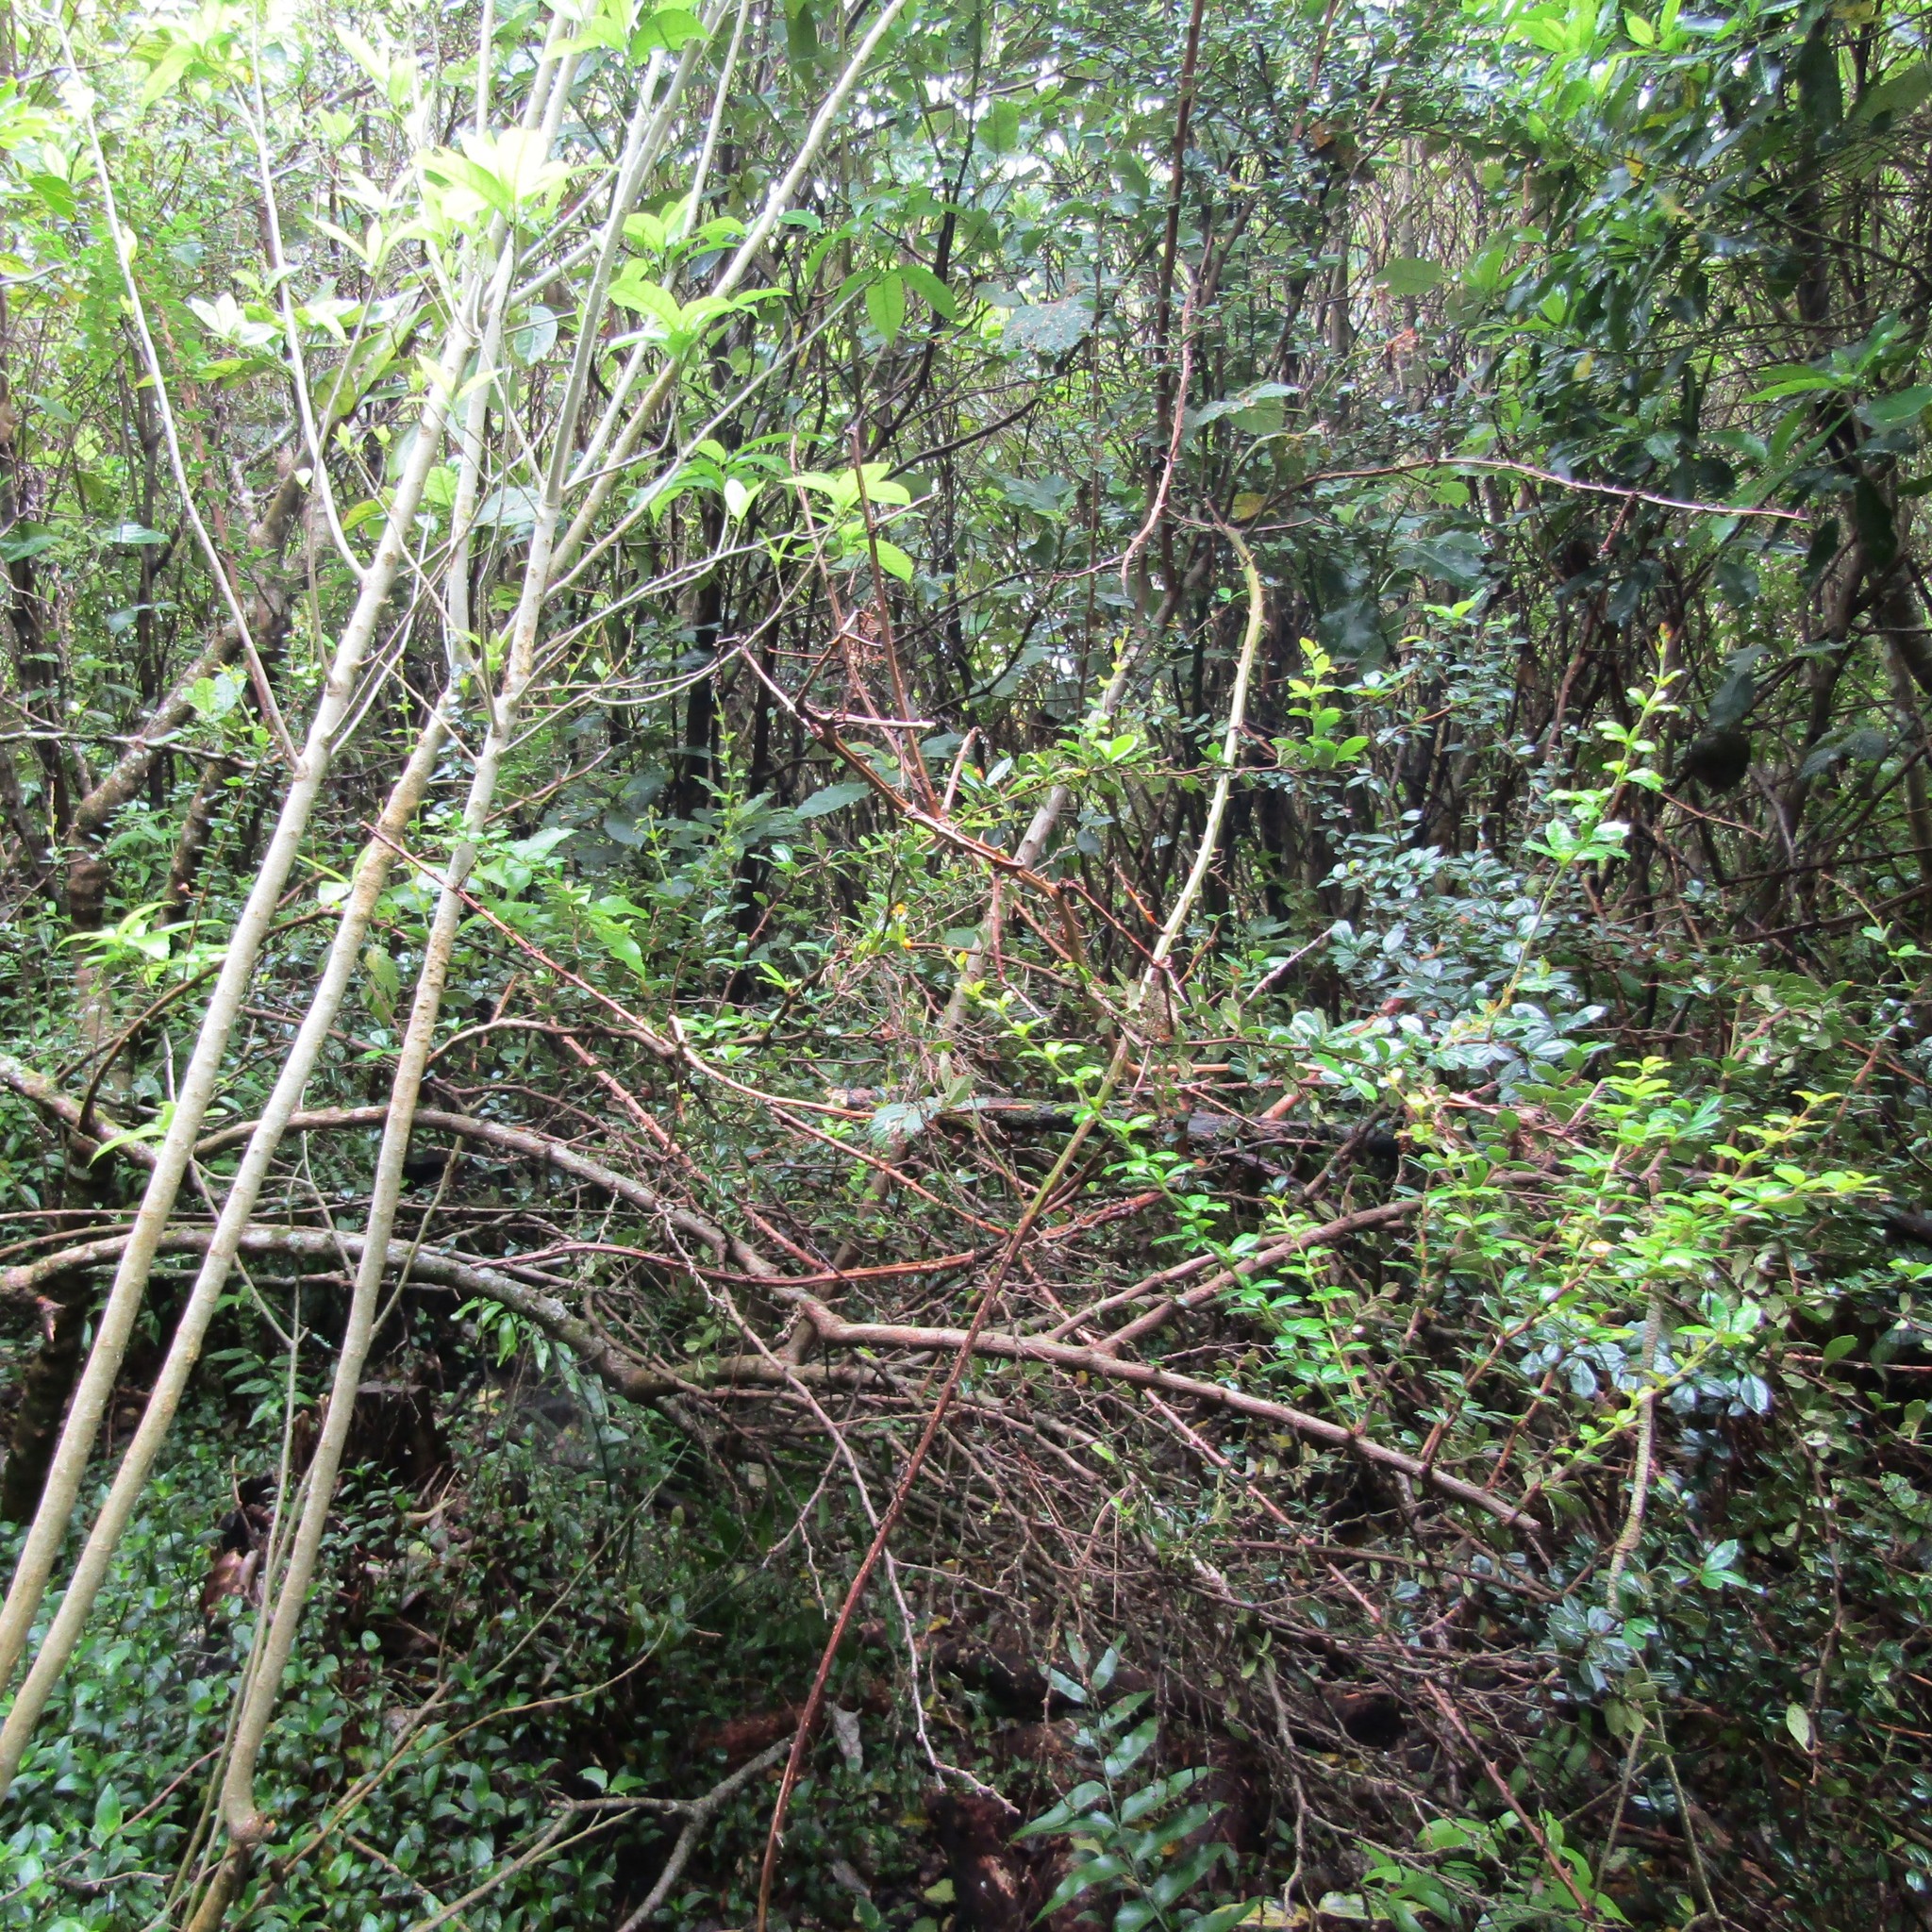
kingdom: Plantae
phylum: Tracheophyta
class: Magnoliopsida
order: Ranunculales
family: Berberidaceae
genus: Berberis
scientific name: Berberis darwinii
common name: Darwin's barberry
